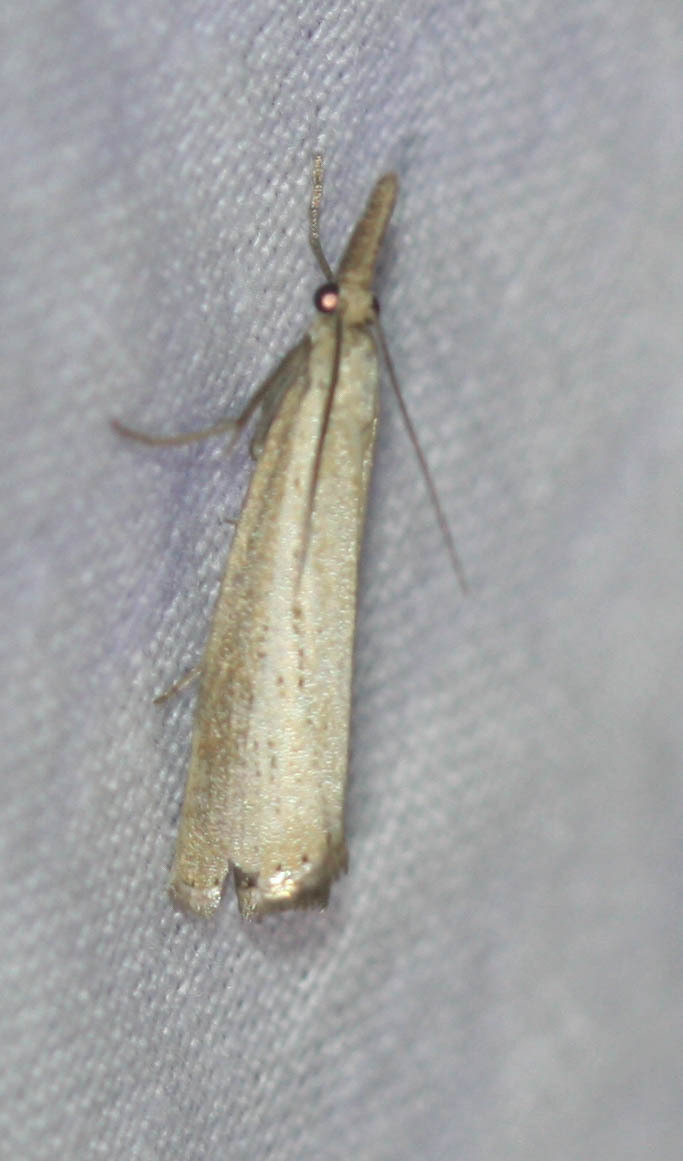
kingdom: Animalia
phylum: Arthropoda
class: Insecta
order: Lepidoptera
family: Crambidae
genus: Agriphila
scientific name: Agriphila straminella
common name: Straw grass-veneer
